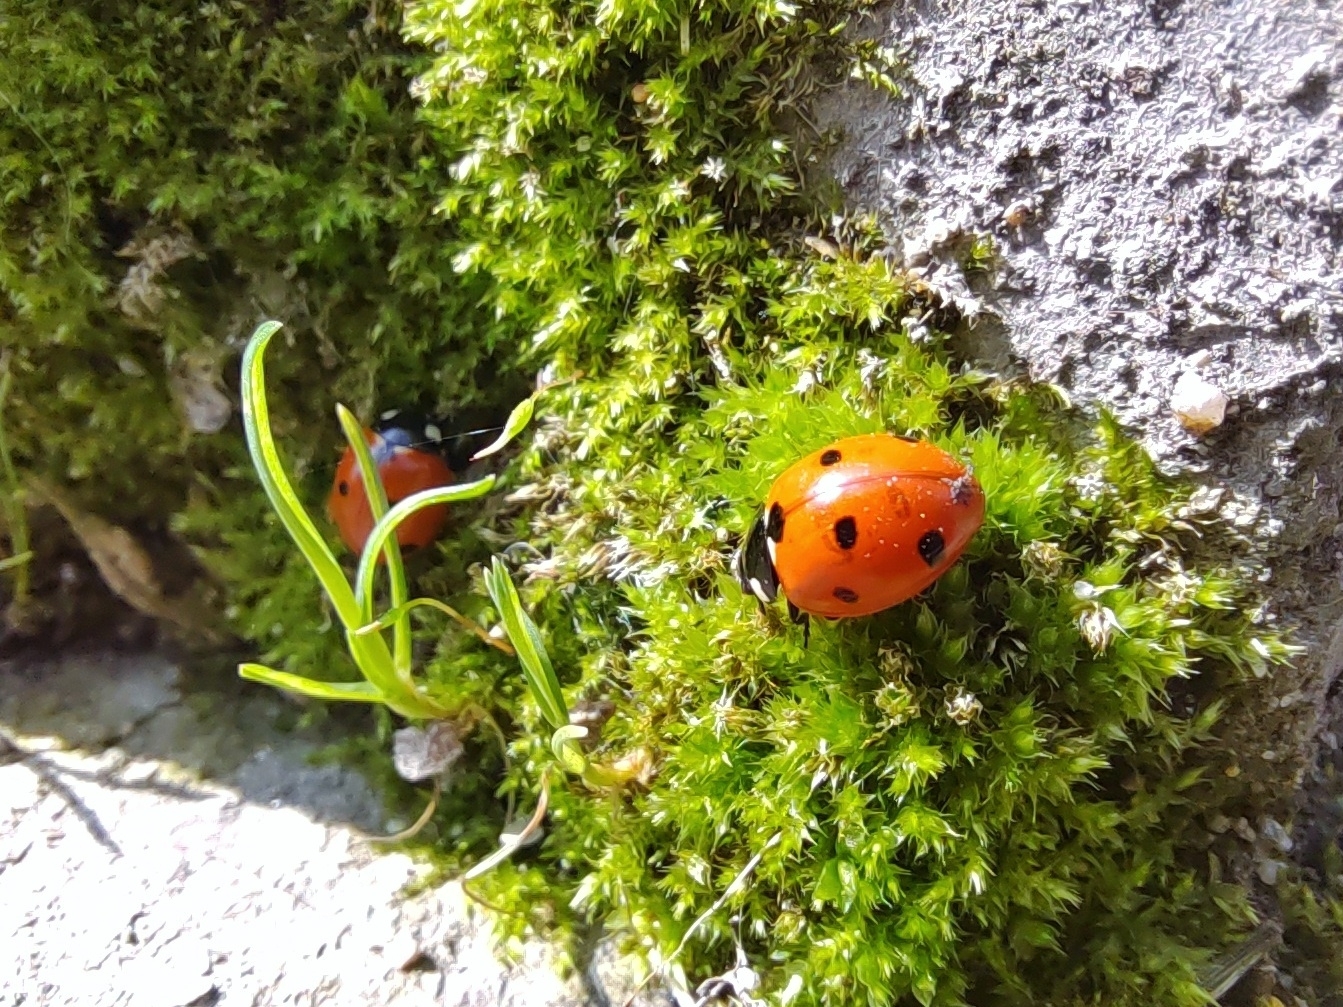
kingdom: Animalia
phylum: Arthropoda
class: Insecta
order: Coleoptera
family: Coccinellidae
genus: Coccinella
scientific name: Coccinella septempunctata
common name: Sevenspotted lady beetle
